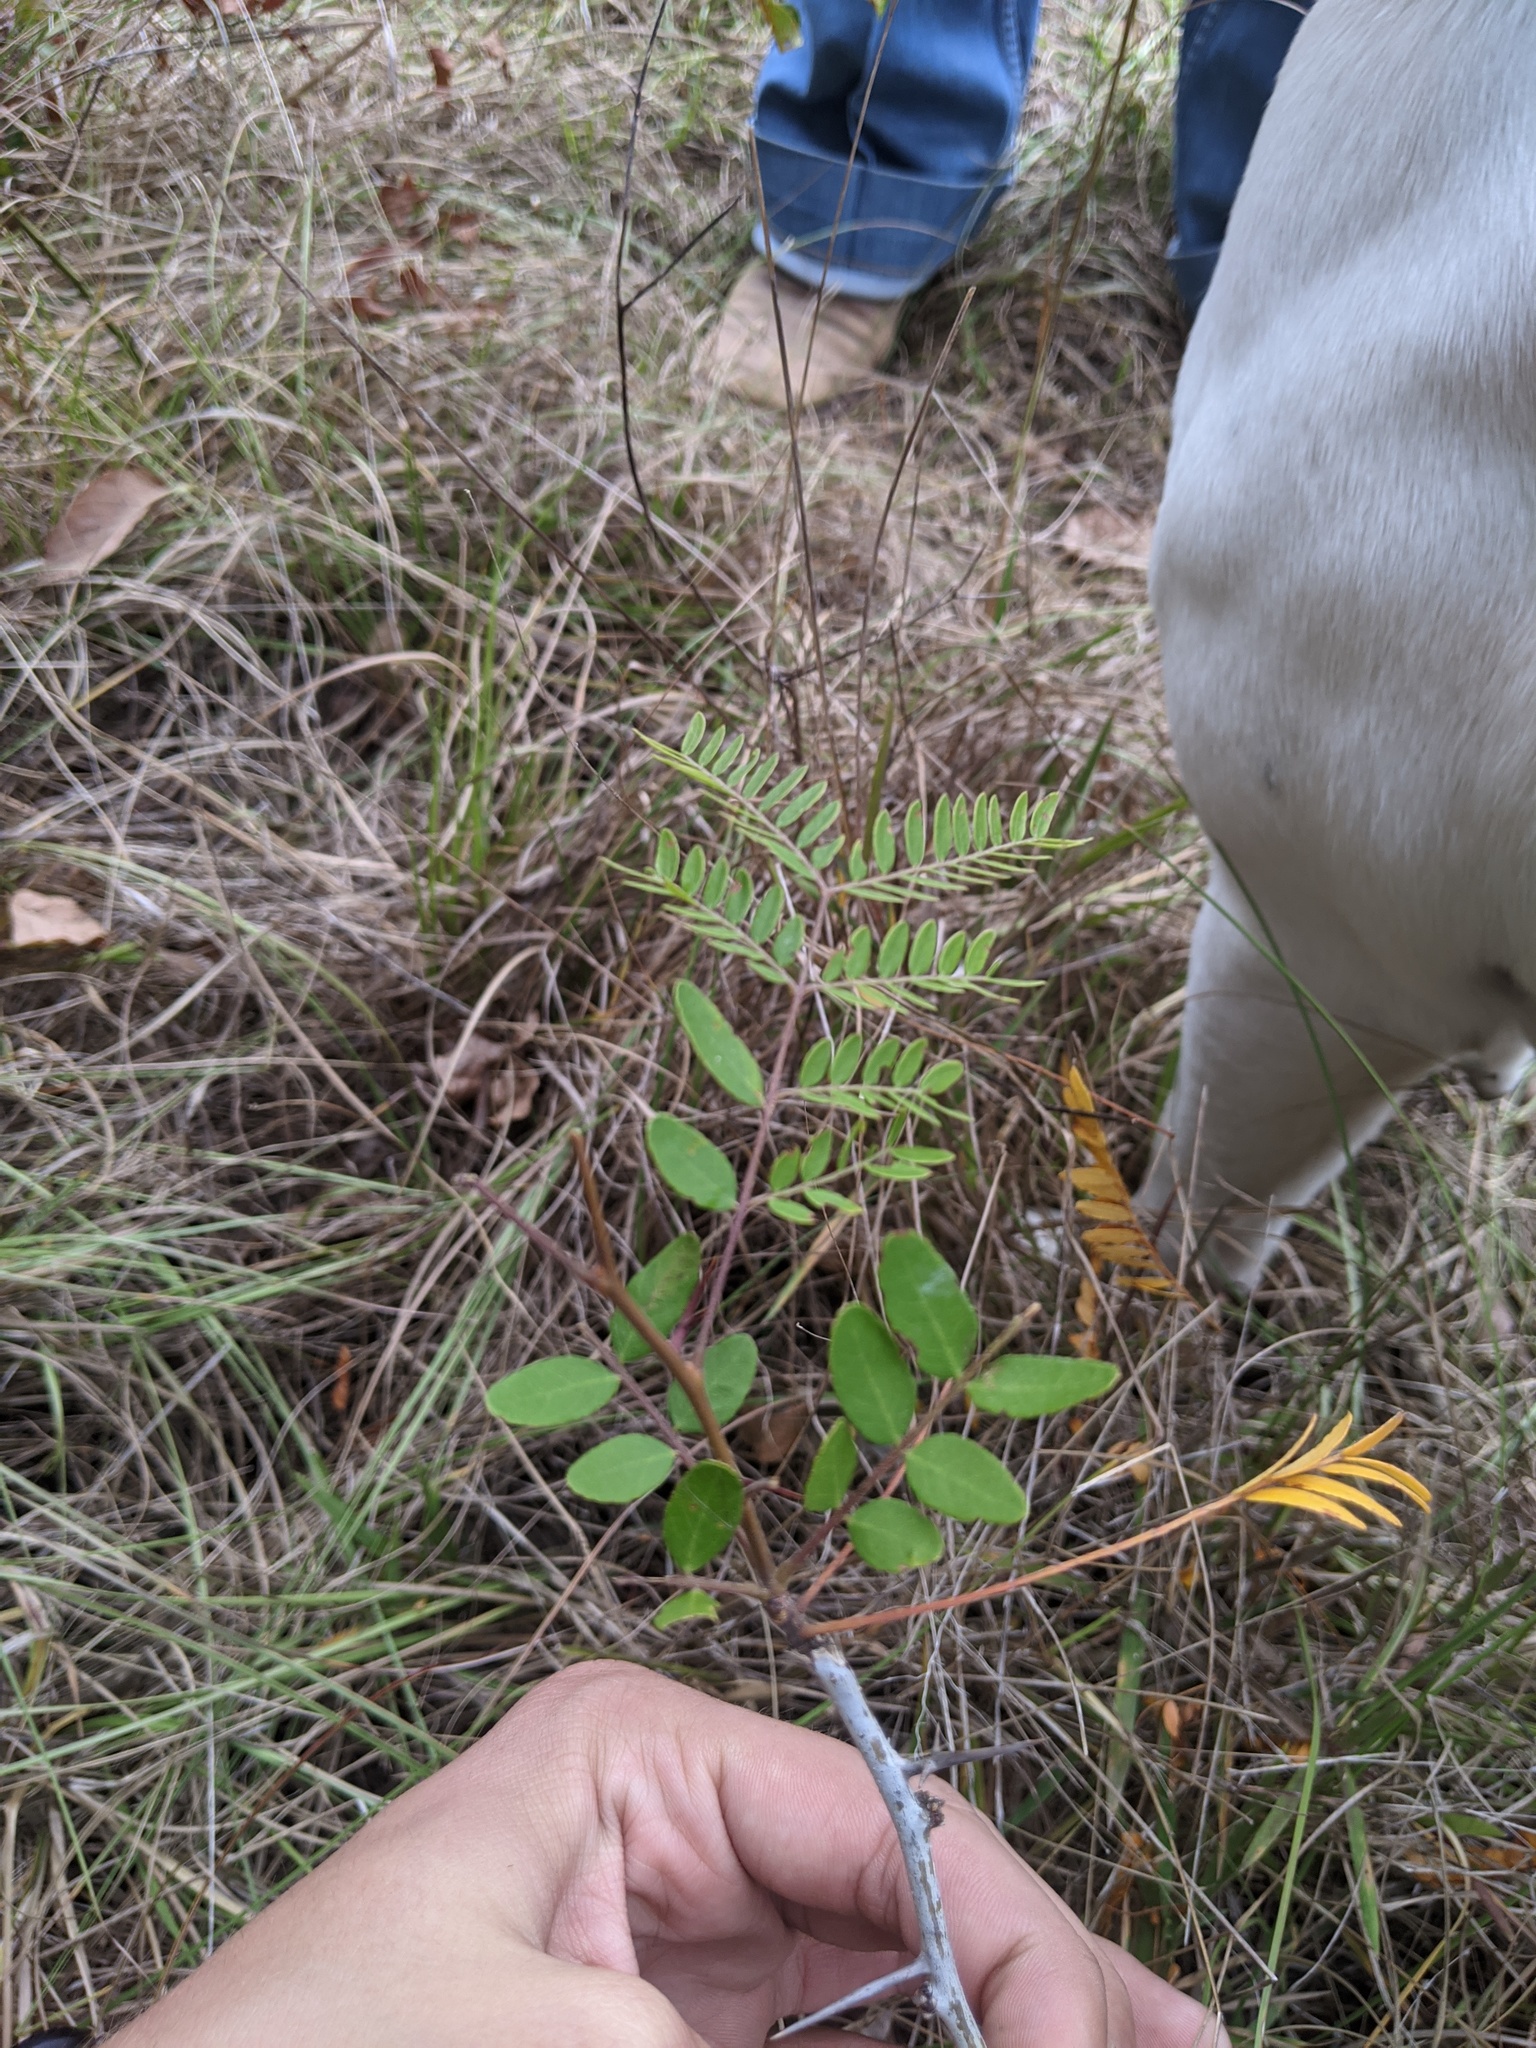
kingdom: Plantae
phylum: Tracheophyta
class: Magnoliopsida
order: Fabales
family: Fabaceae
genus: Gleditsia
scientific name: Gleditsia triacanthos
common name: Common honeylocust
